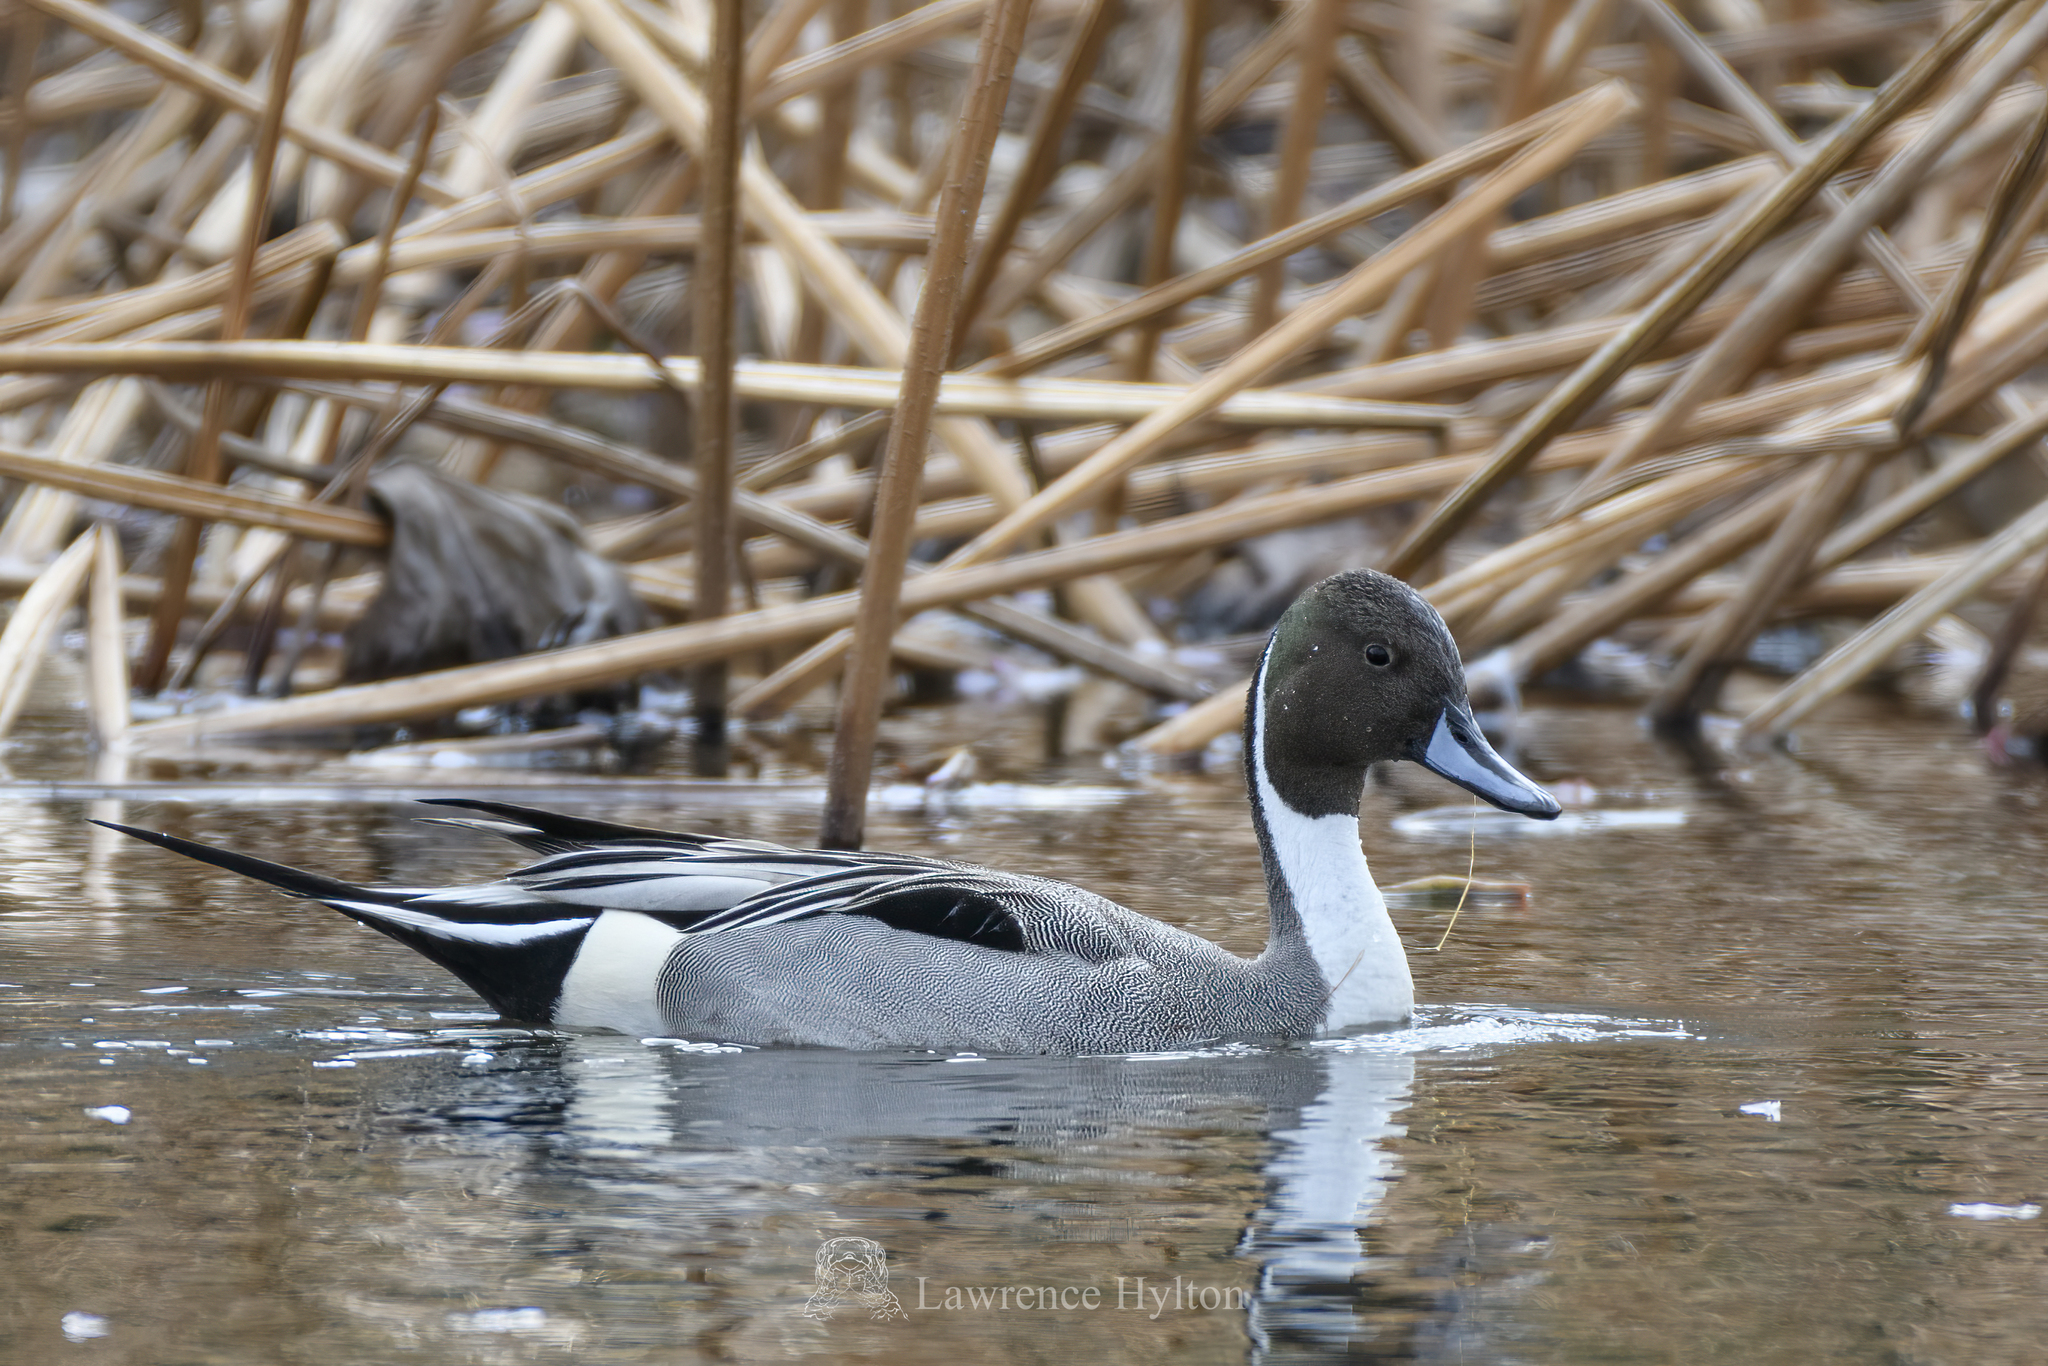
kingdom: Animalia
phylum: Chordata
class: Aves
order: Anseriformes
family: Anatidae
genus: Anas
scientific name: Anas acuta
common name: Northern pintail
